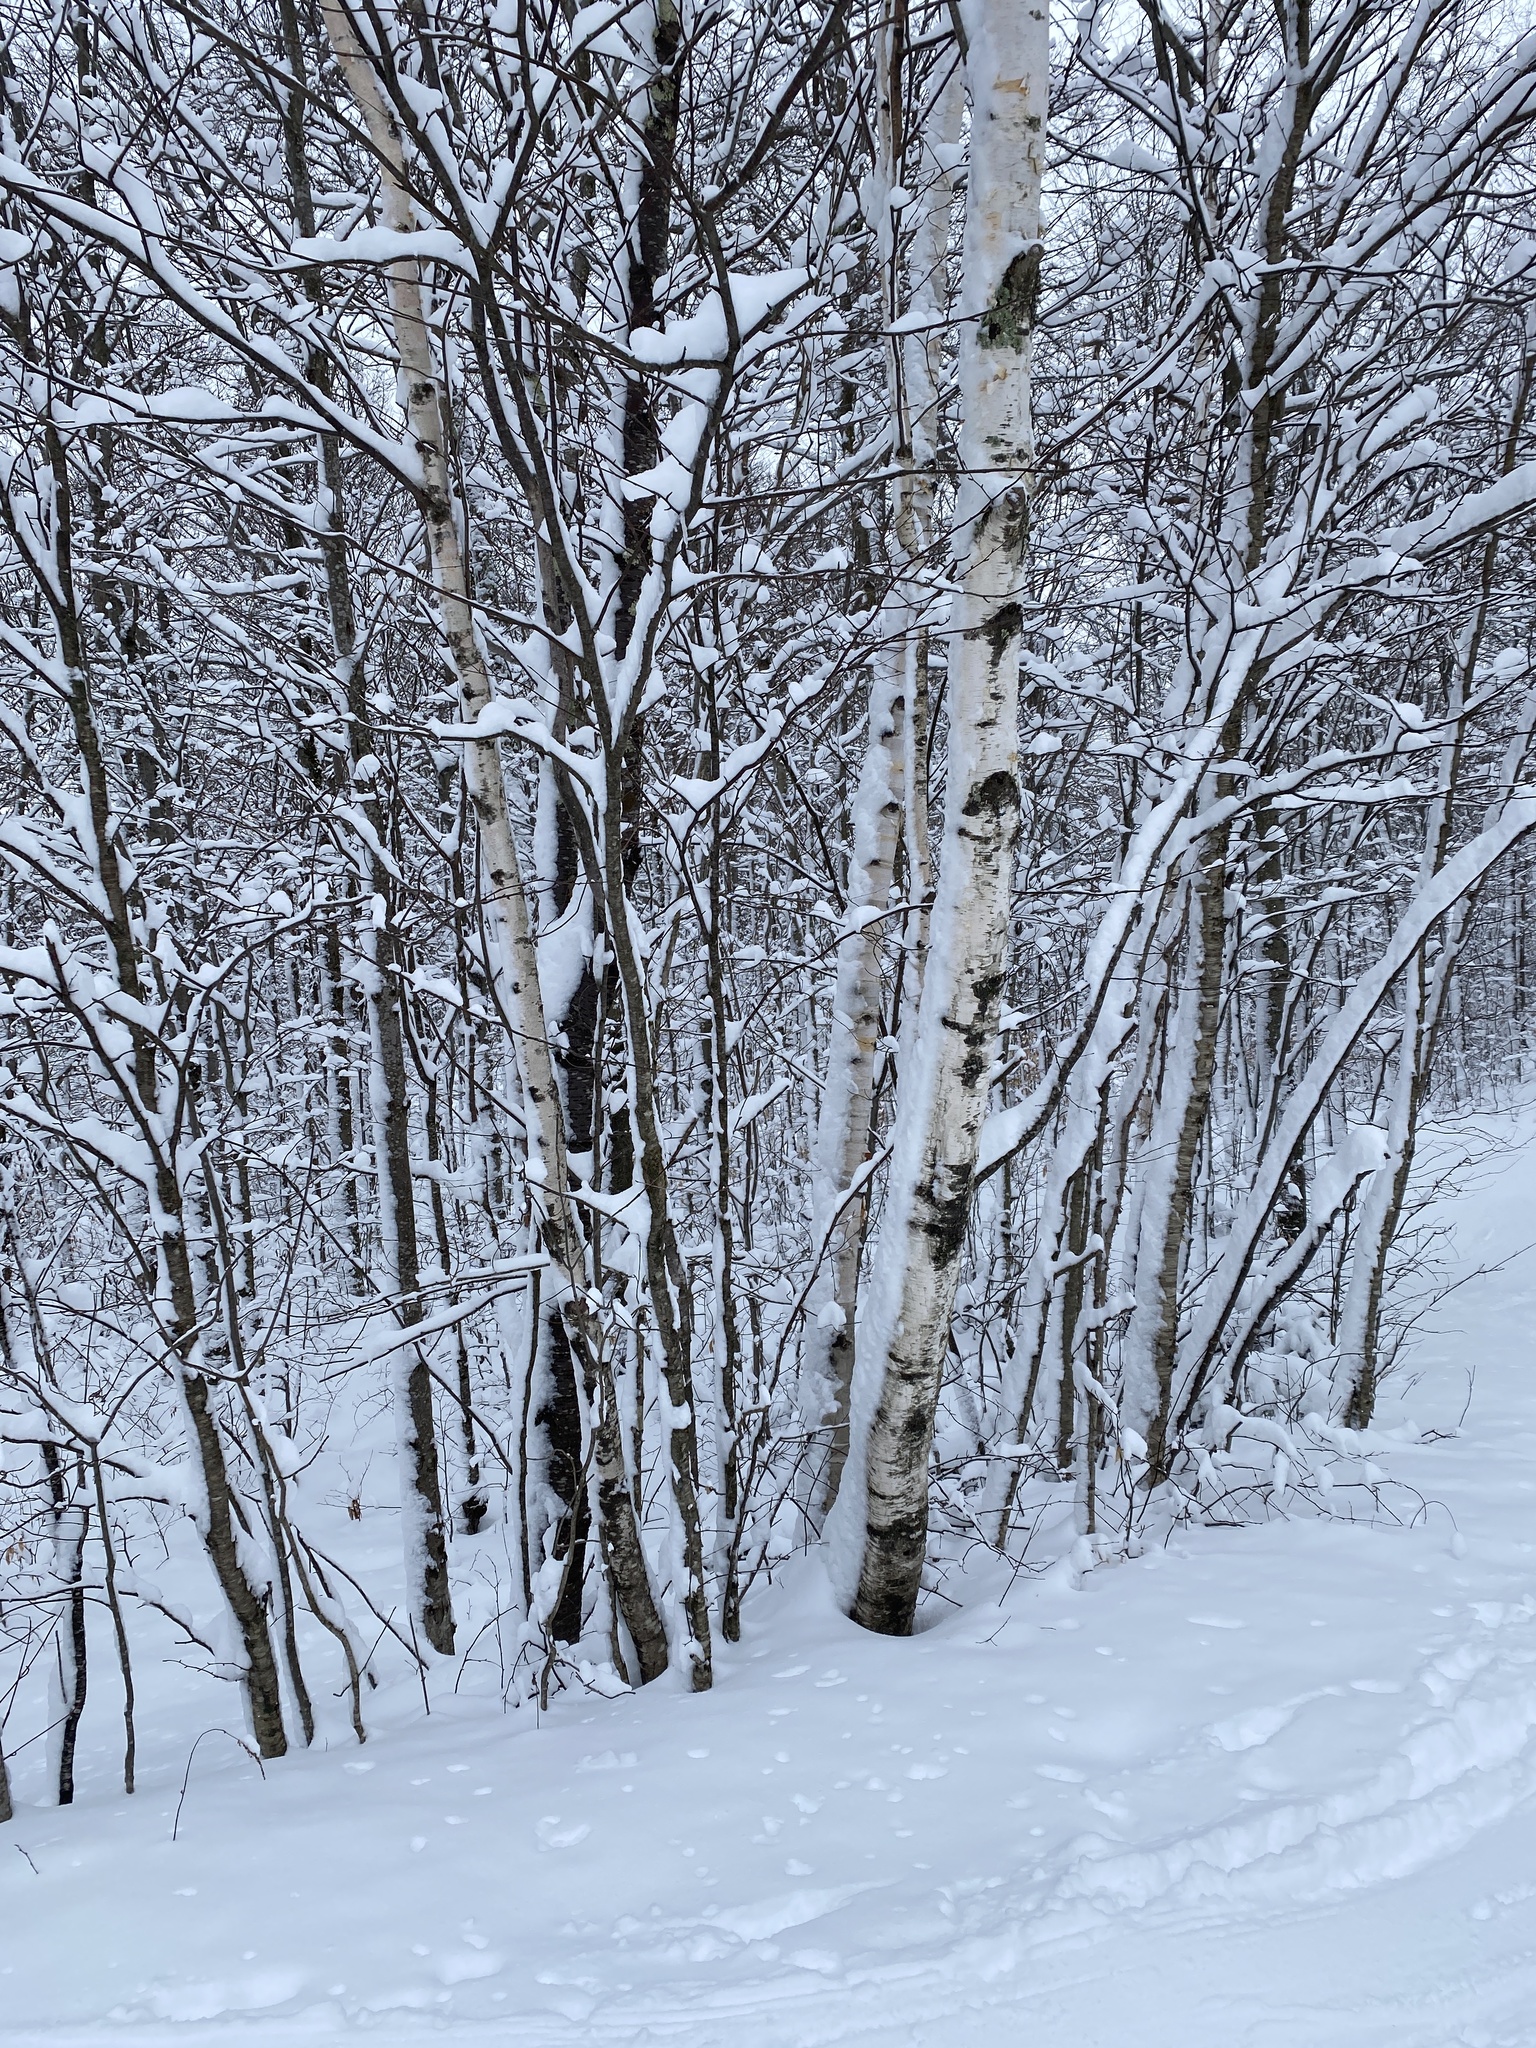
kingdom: Plantae
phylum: Tracheophyta
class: Magnoliopsida
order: Fagales
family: Betulaceae
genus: Betula
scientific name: Betula papyrifera
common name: Paper birch
